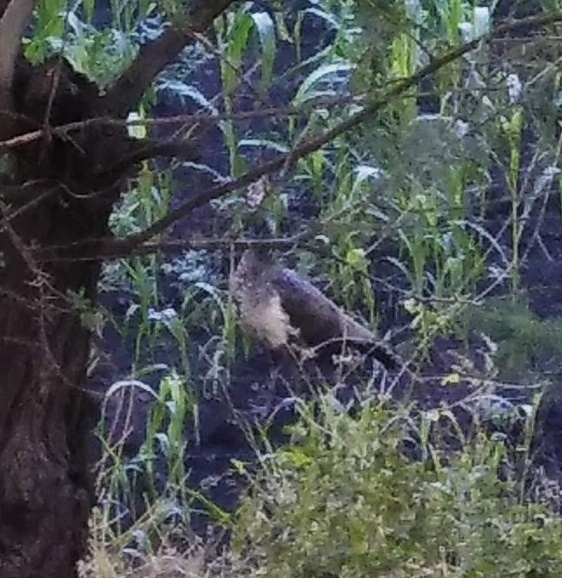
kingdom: Animalia
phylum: Chordata
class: Aves
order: Galliformes
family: Phasianidae
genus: Pavo
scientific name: Pavo cristatus
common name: Indian peafowl
